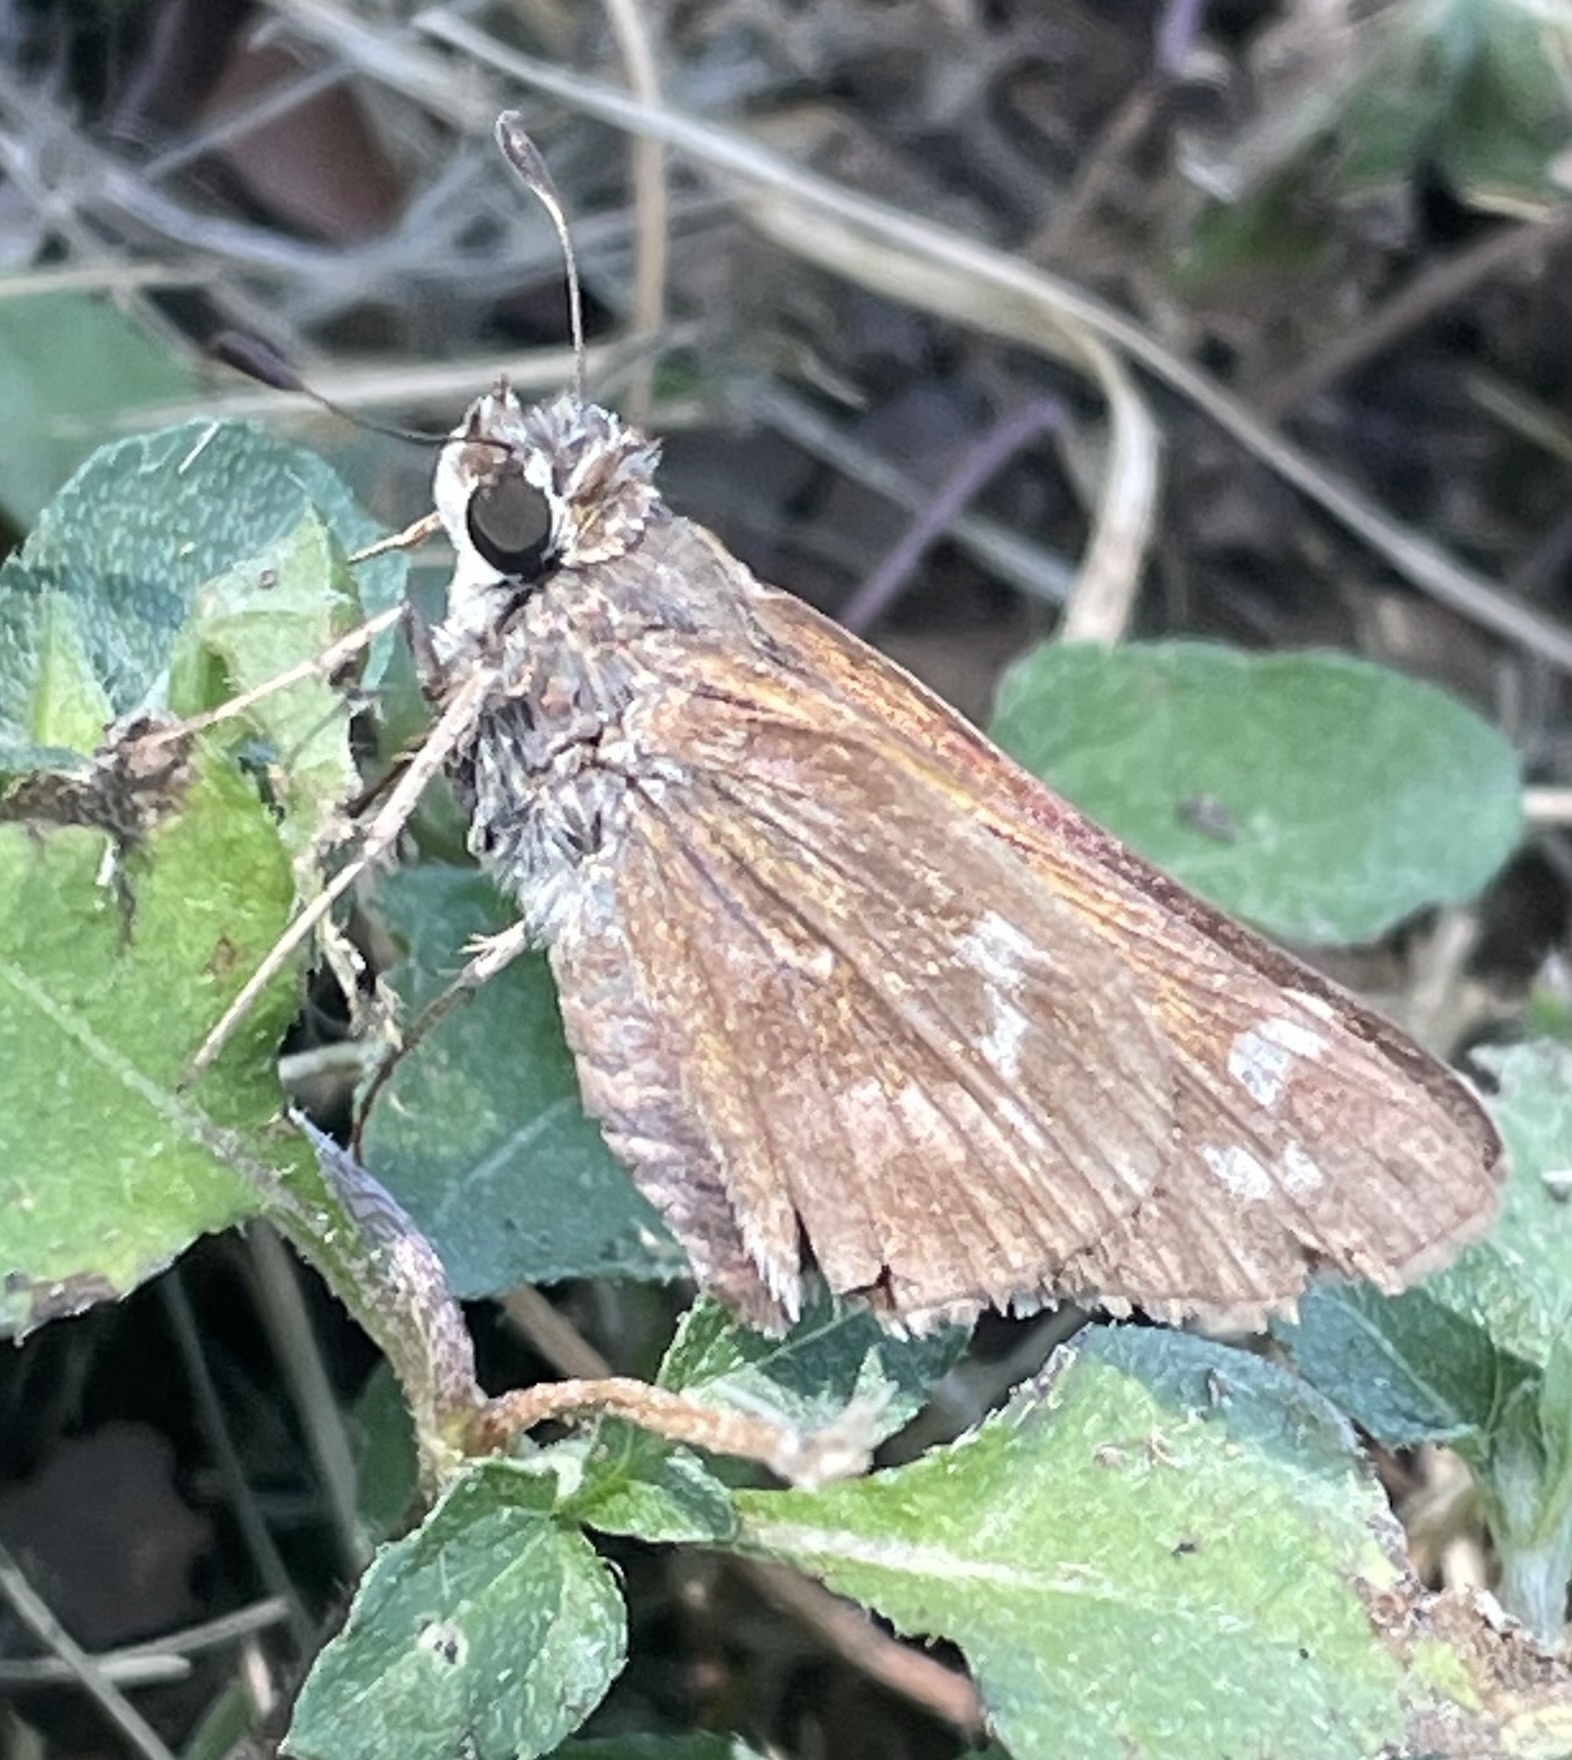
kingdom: Animalia
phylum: Arthropoda
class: Insecta
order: Lepidoptera
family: Hesperiidae
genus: Atalopedes
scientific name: Atalopedes
